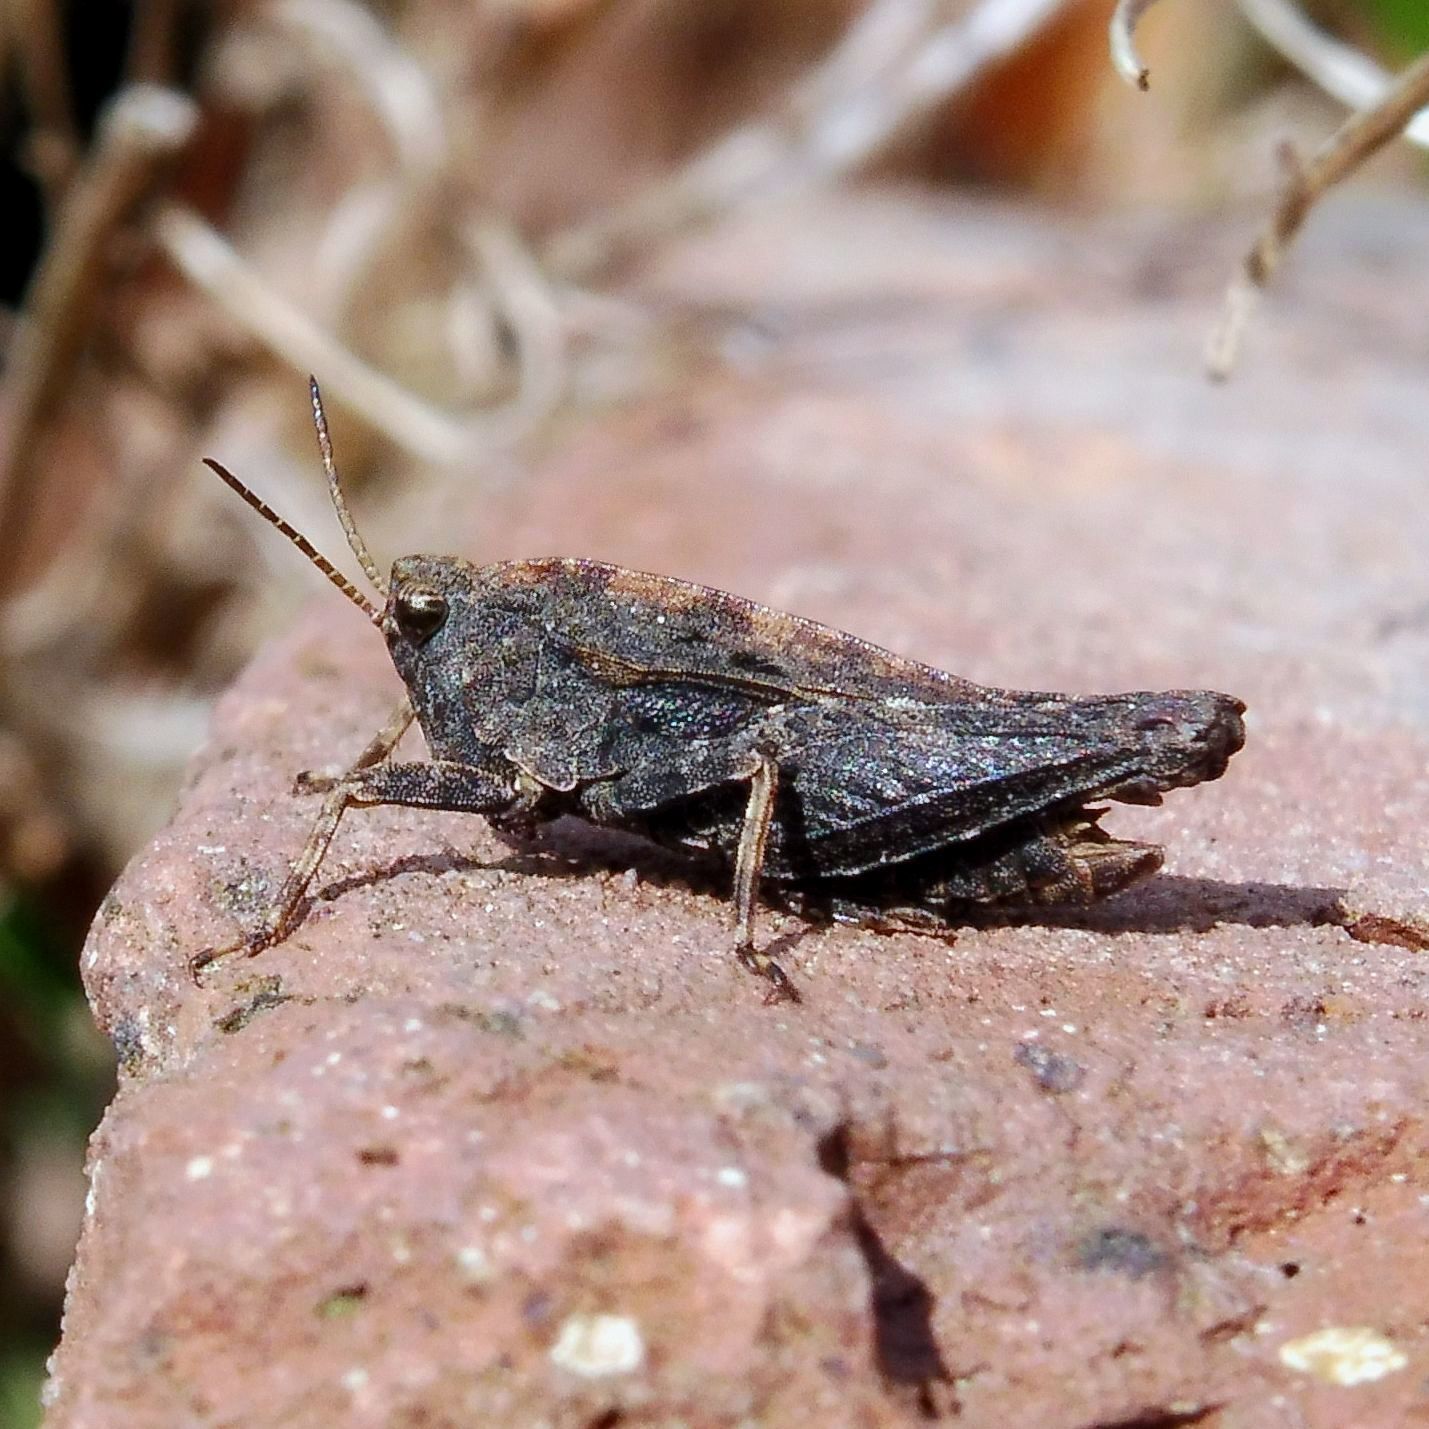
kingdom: Animalia
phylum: Arthropoda
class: Insecta
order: Orthoptera
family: Tetrigidae
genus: Tetrix
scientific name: Tetrix undulata
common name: Common groundhopper
